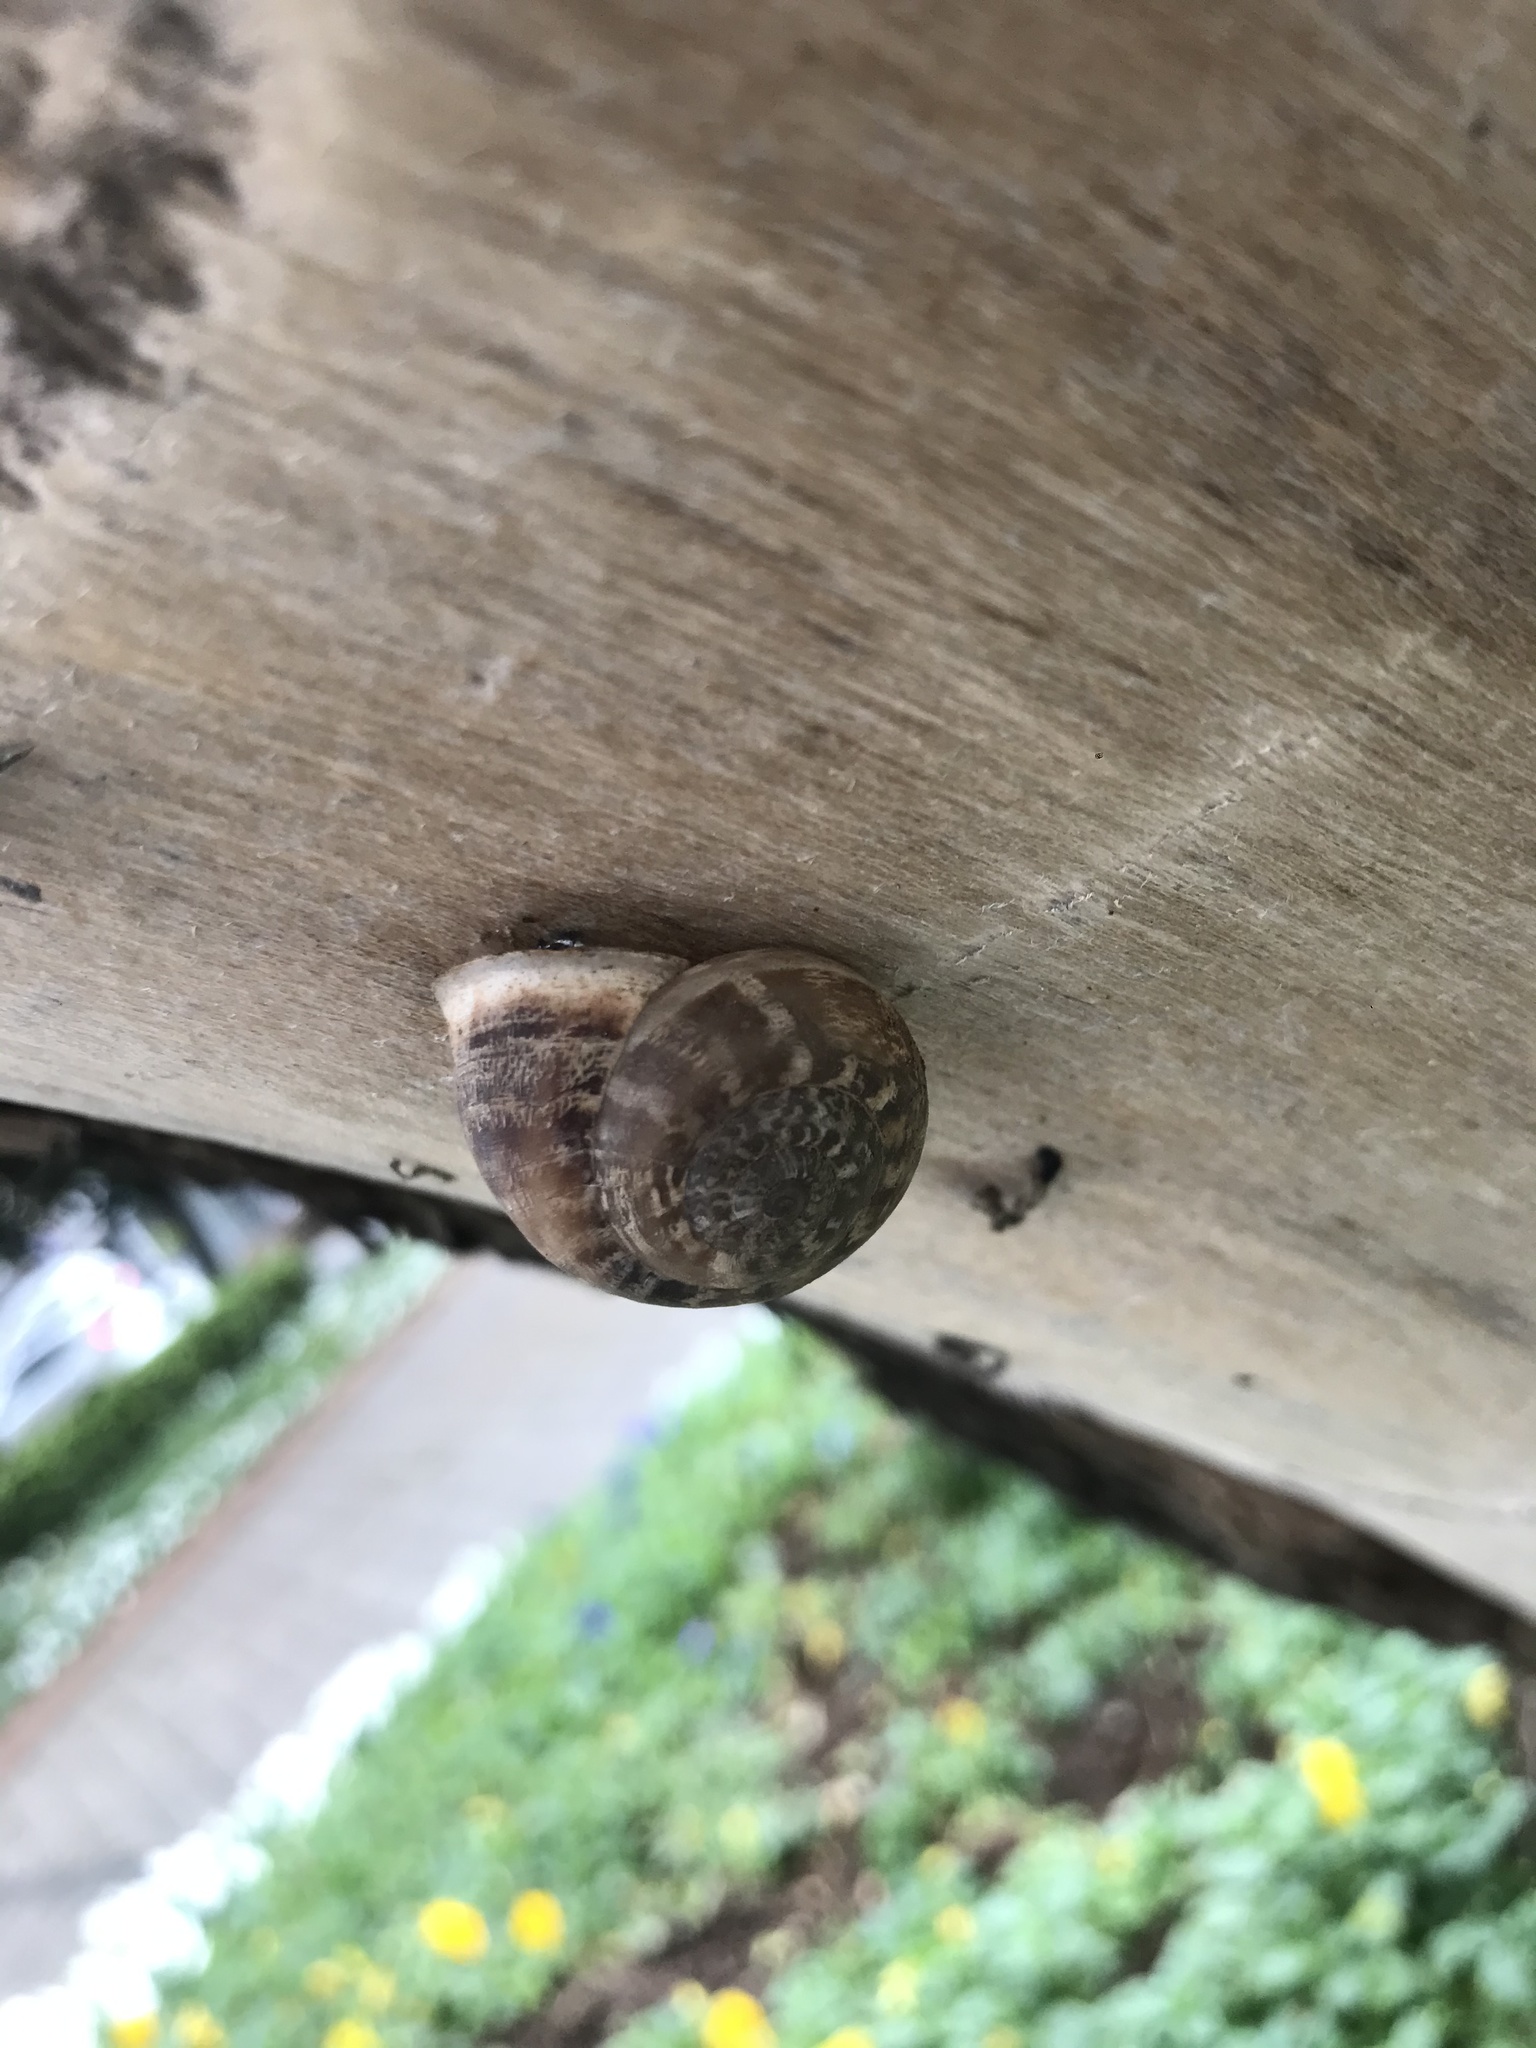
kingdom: Animalia
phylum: Mollusca
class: Gastropoda
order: Stylommatophora
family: Helicidae
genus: Eobania
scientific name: Eobania vermiculata
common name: Chocolateband snail
